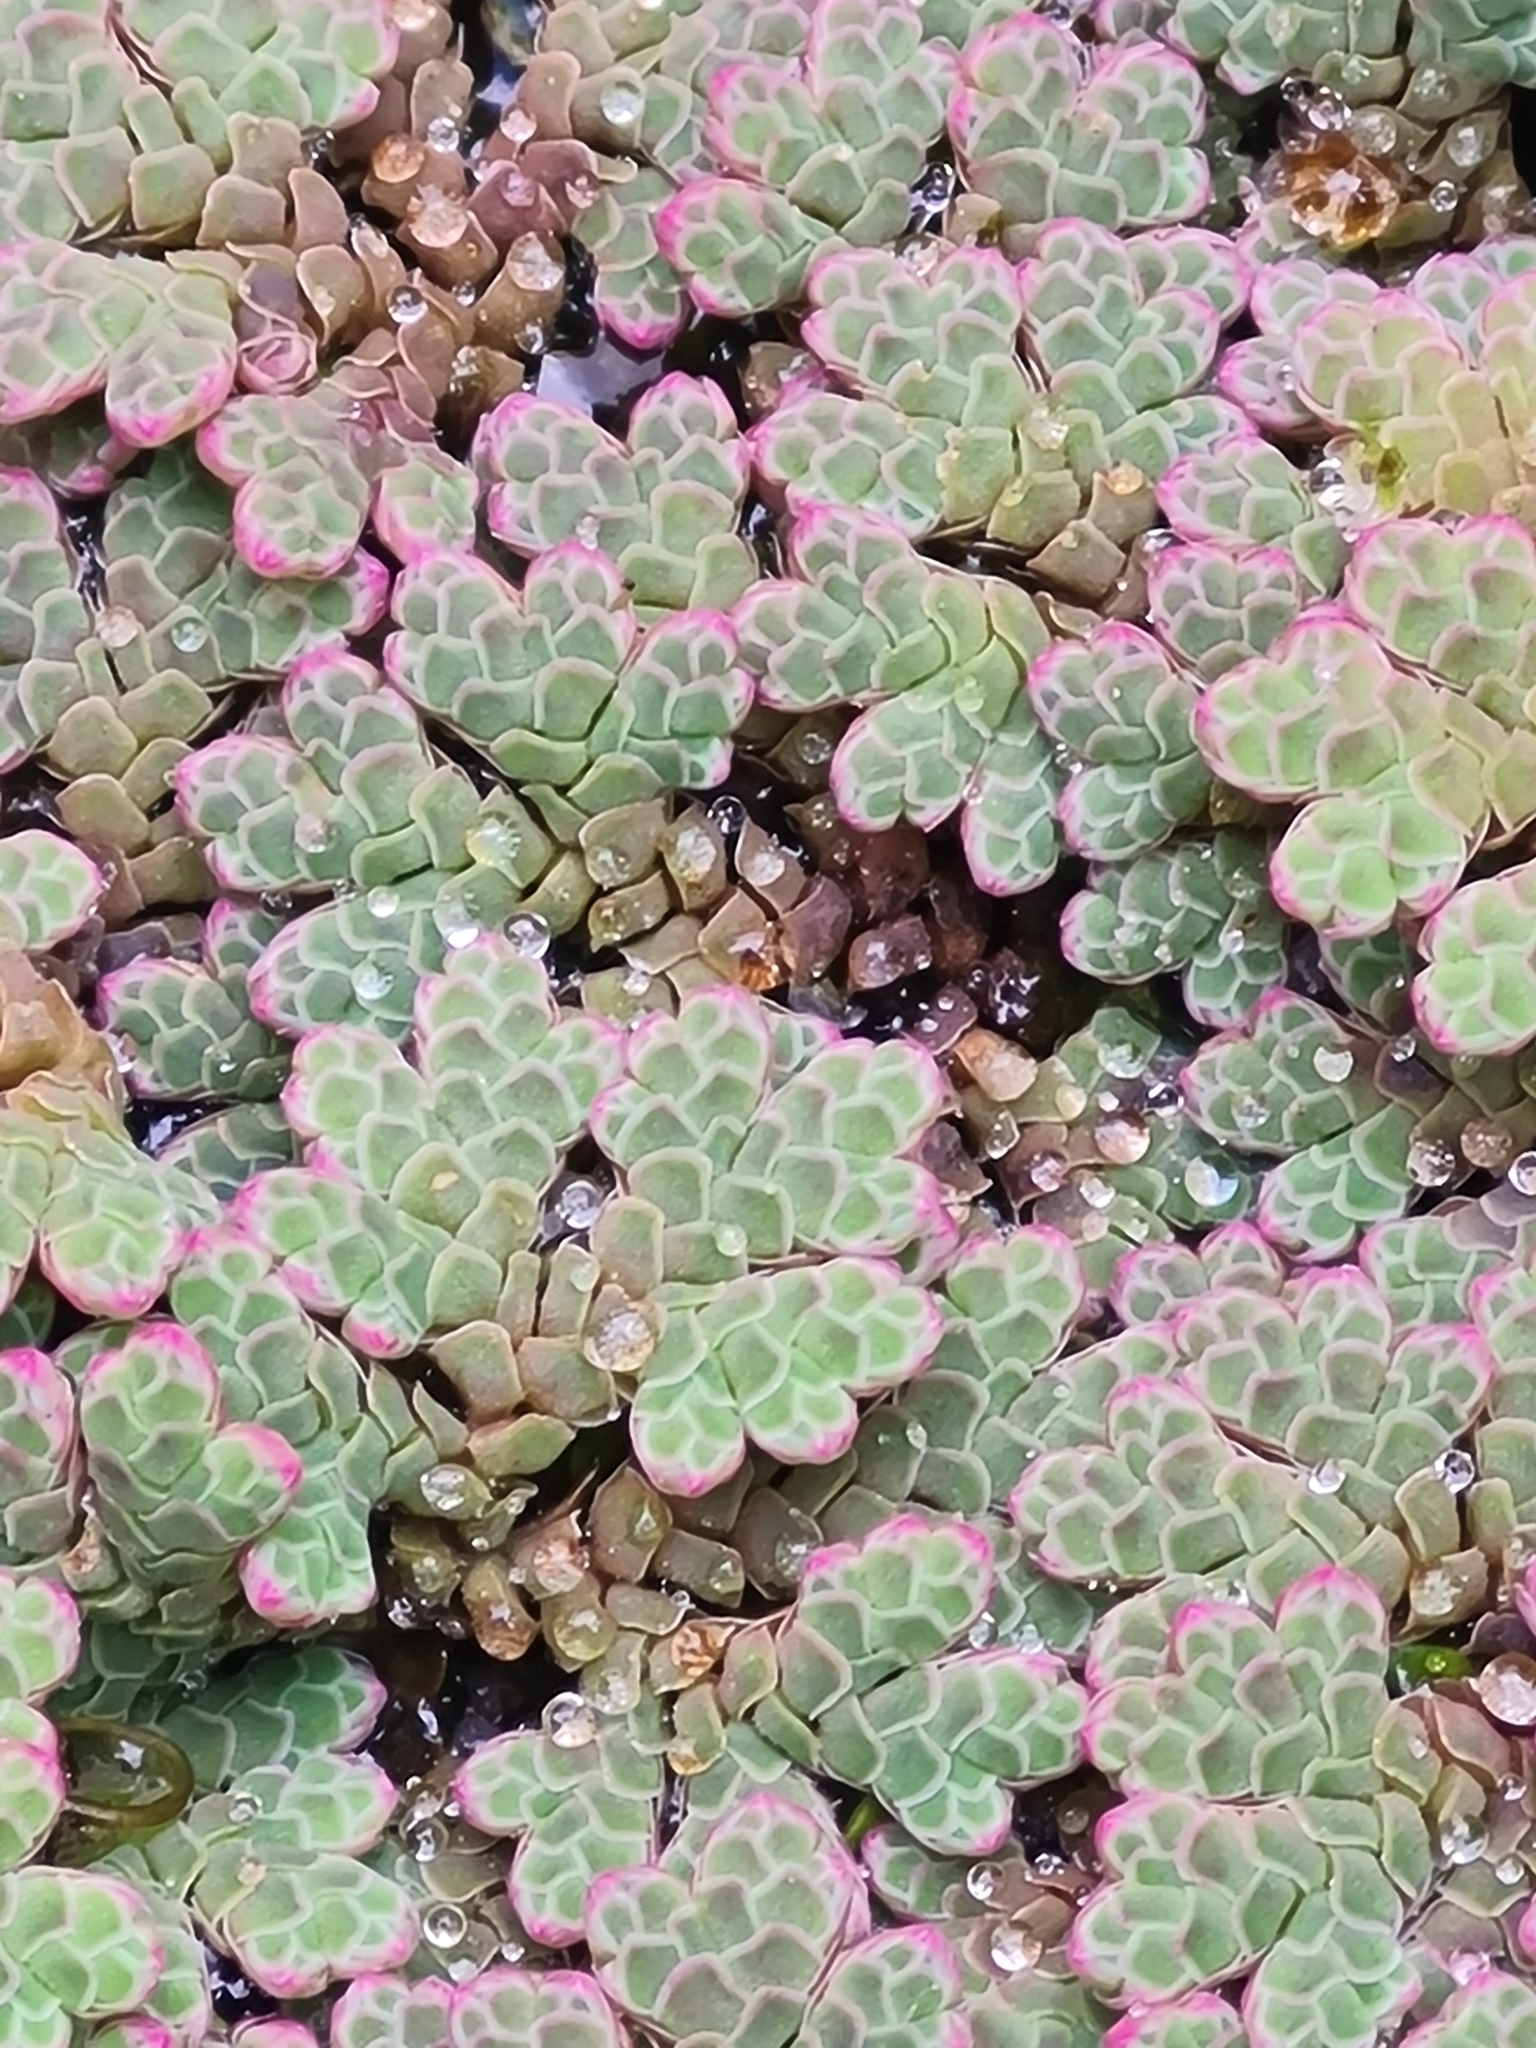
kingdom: Plantae
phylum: Tracheophyta
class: Polypodiopsida
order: Salviniales
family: Salviniaceae
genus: Azolla
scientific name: Azolla rubra
